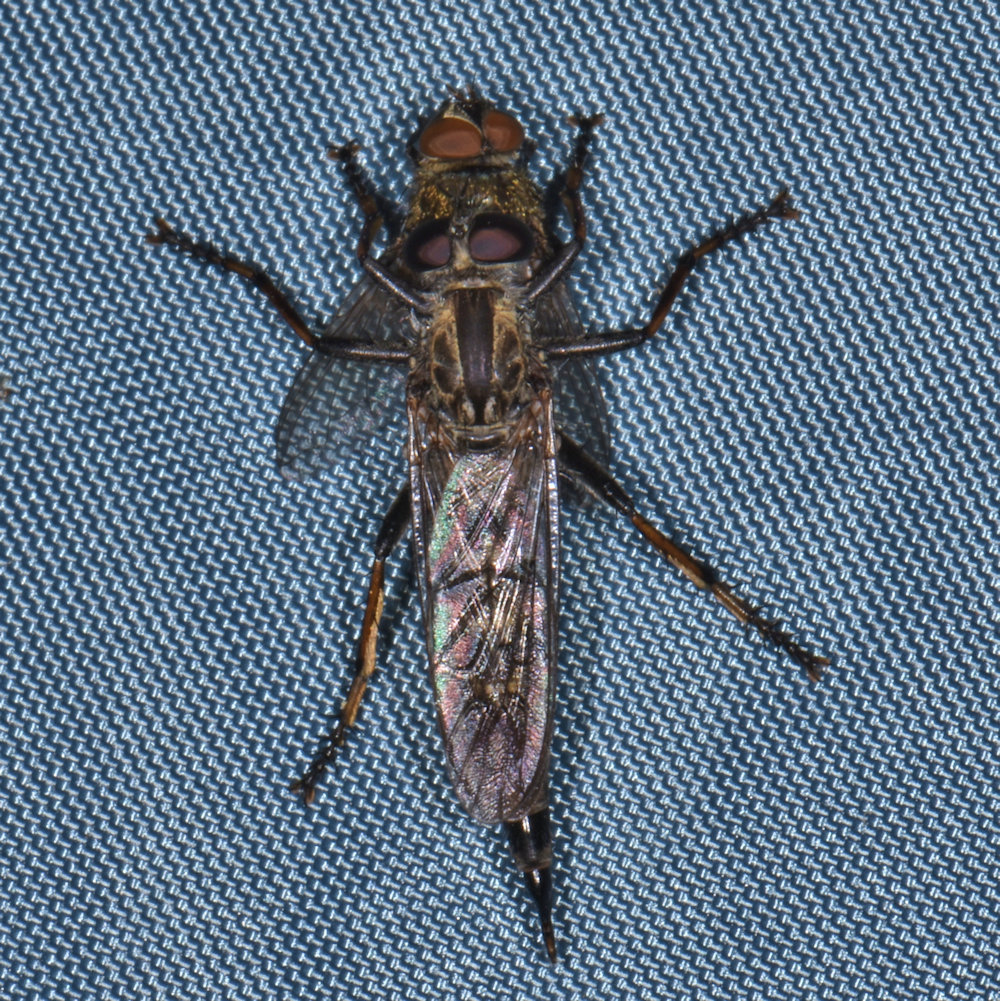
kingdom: Animalia
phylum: Arthropoda
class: Insecta
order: Diptera
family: Asilidae
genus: Machimus
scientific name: Machimus sadyates
